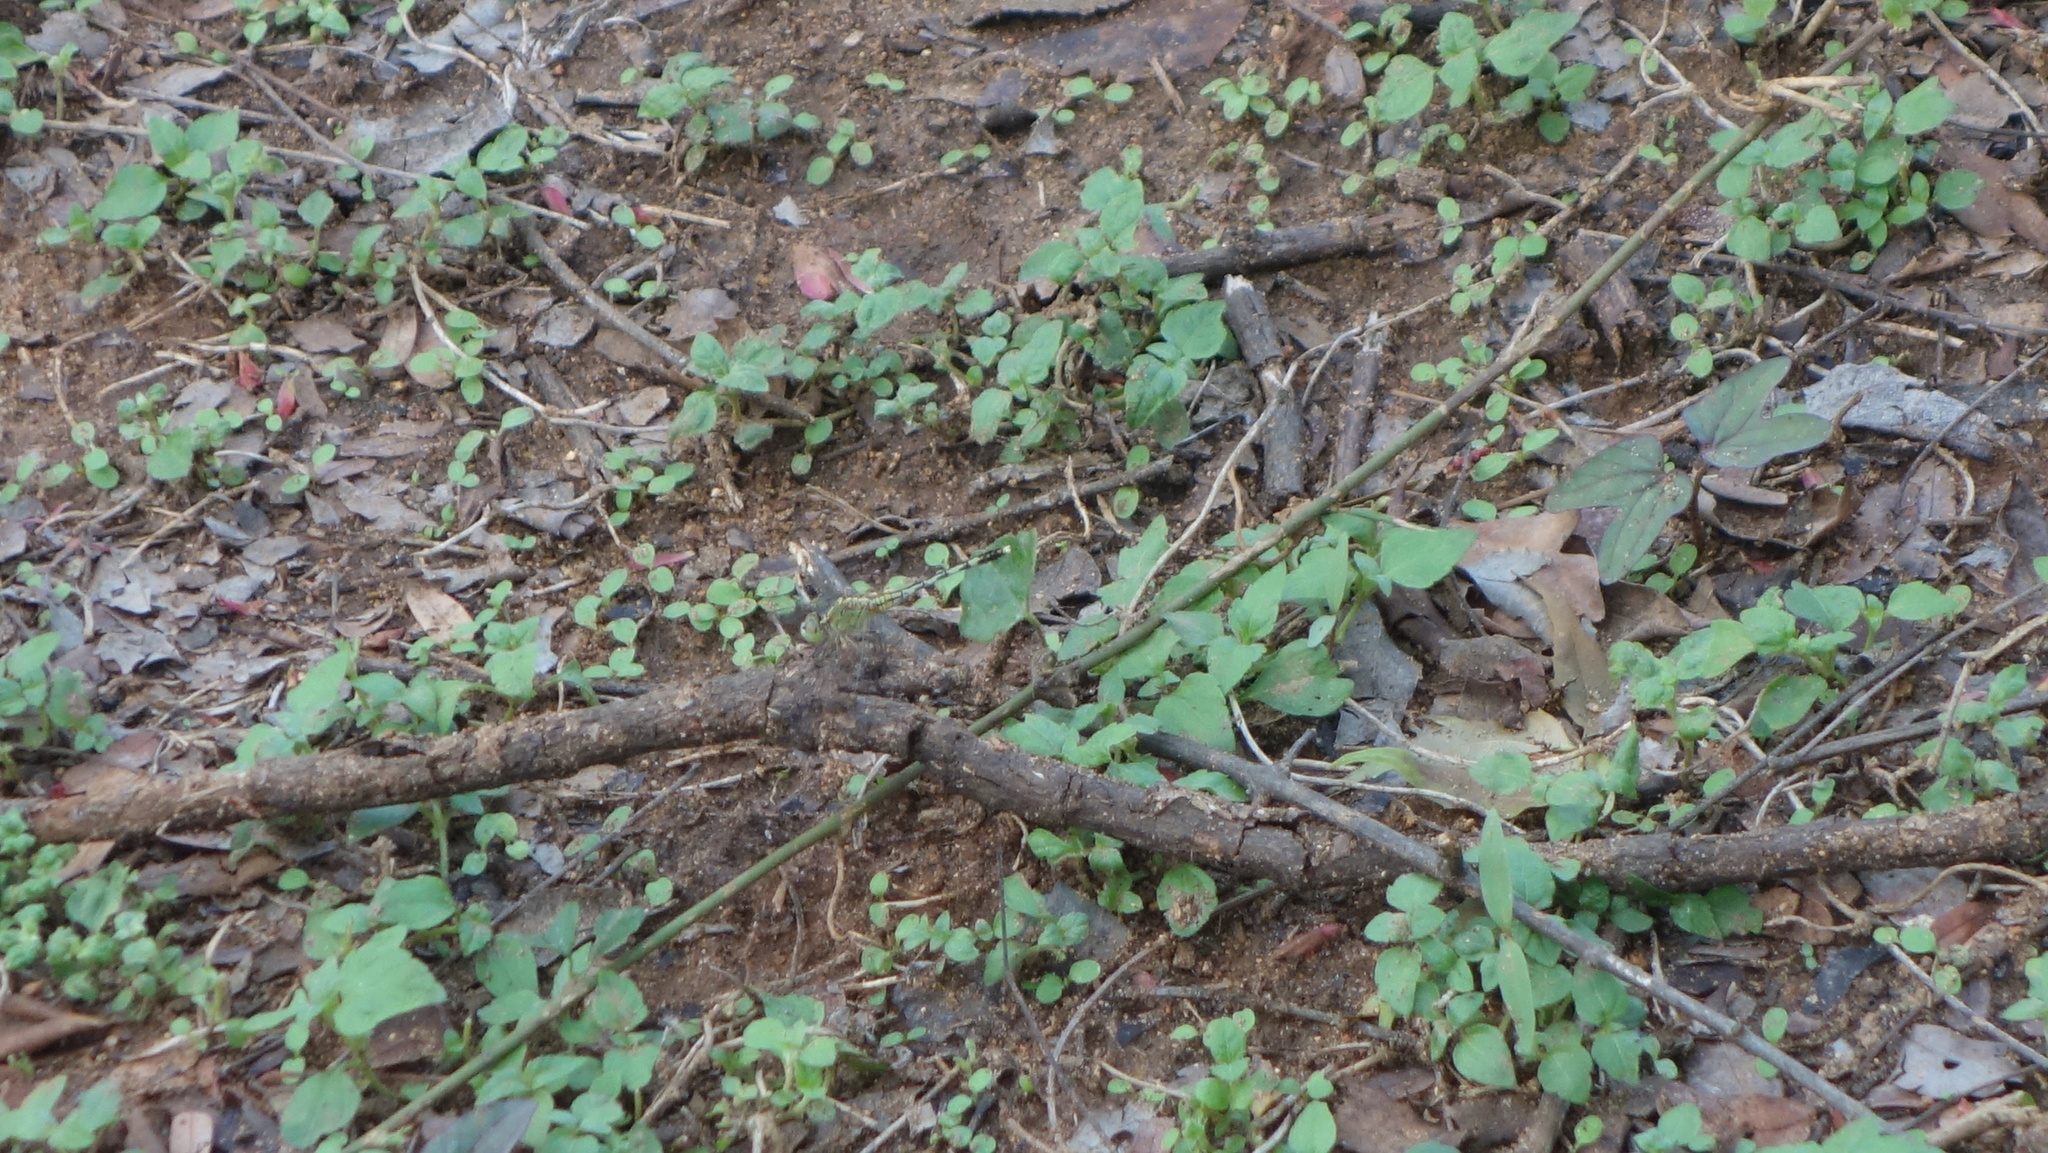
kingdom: Animalia
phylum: Arthropoda
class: Insecta
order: Odonata
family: Libellulidae
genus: Diplacodes
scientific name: Diplacodes trivialis
